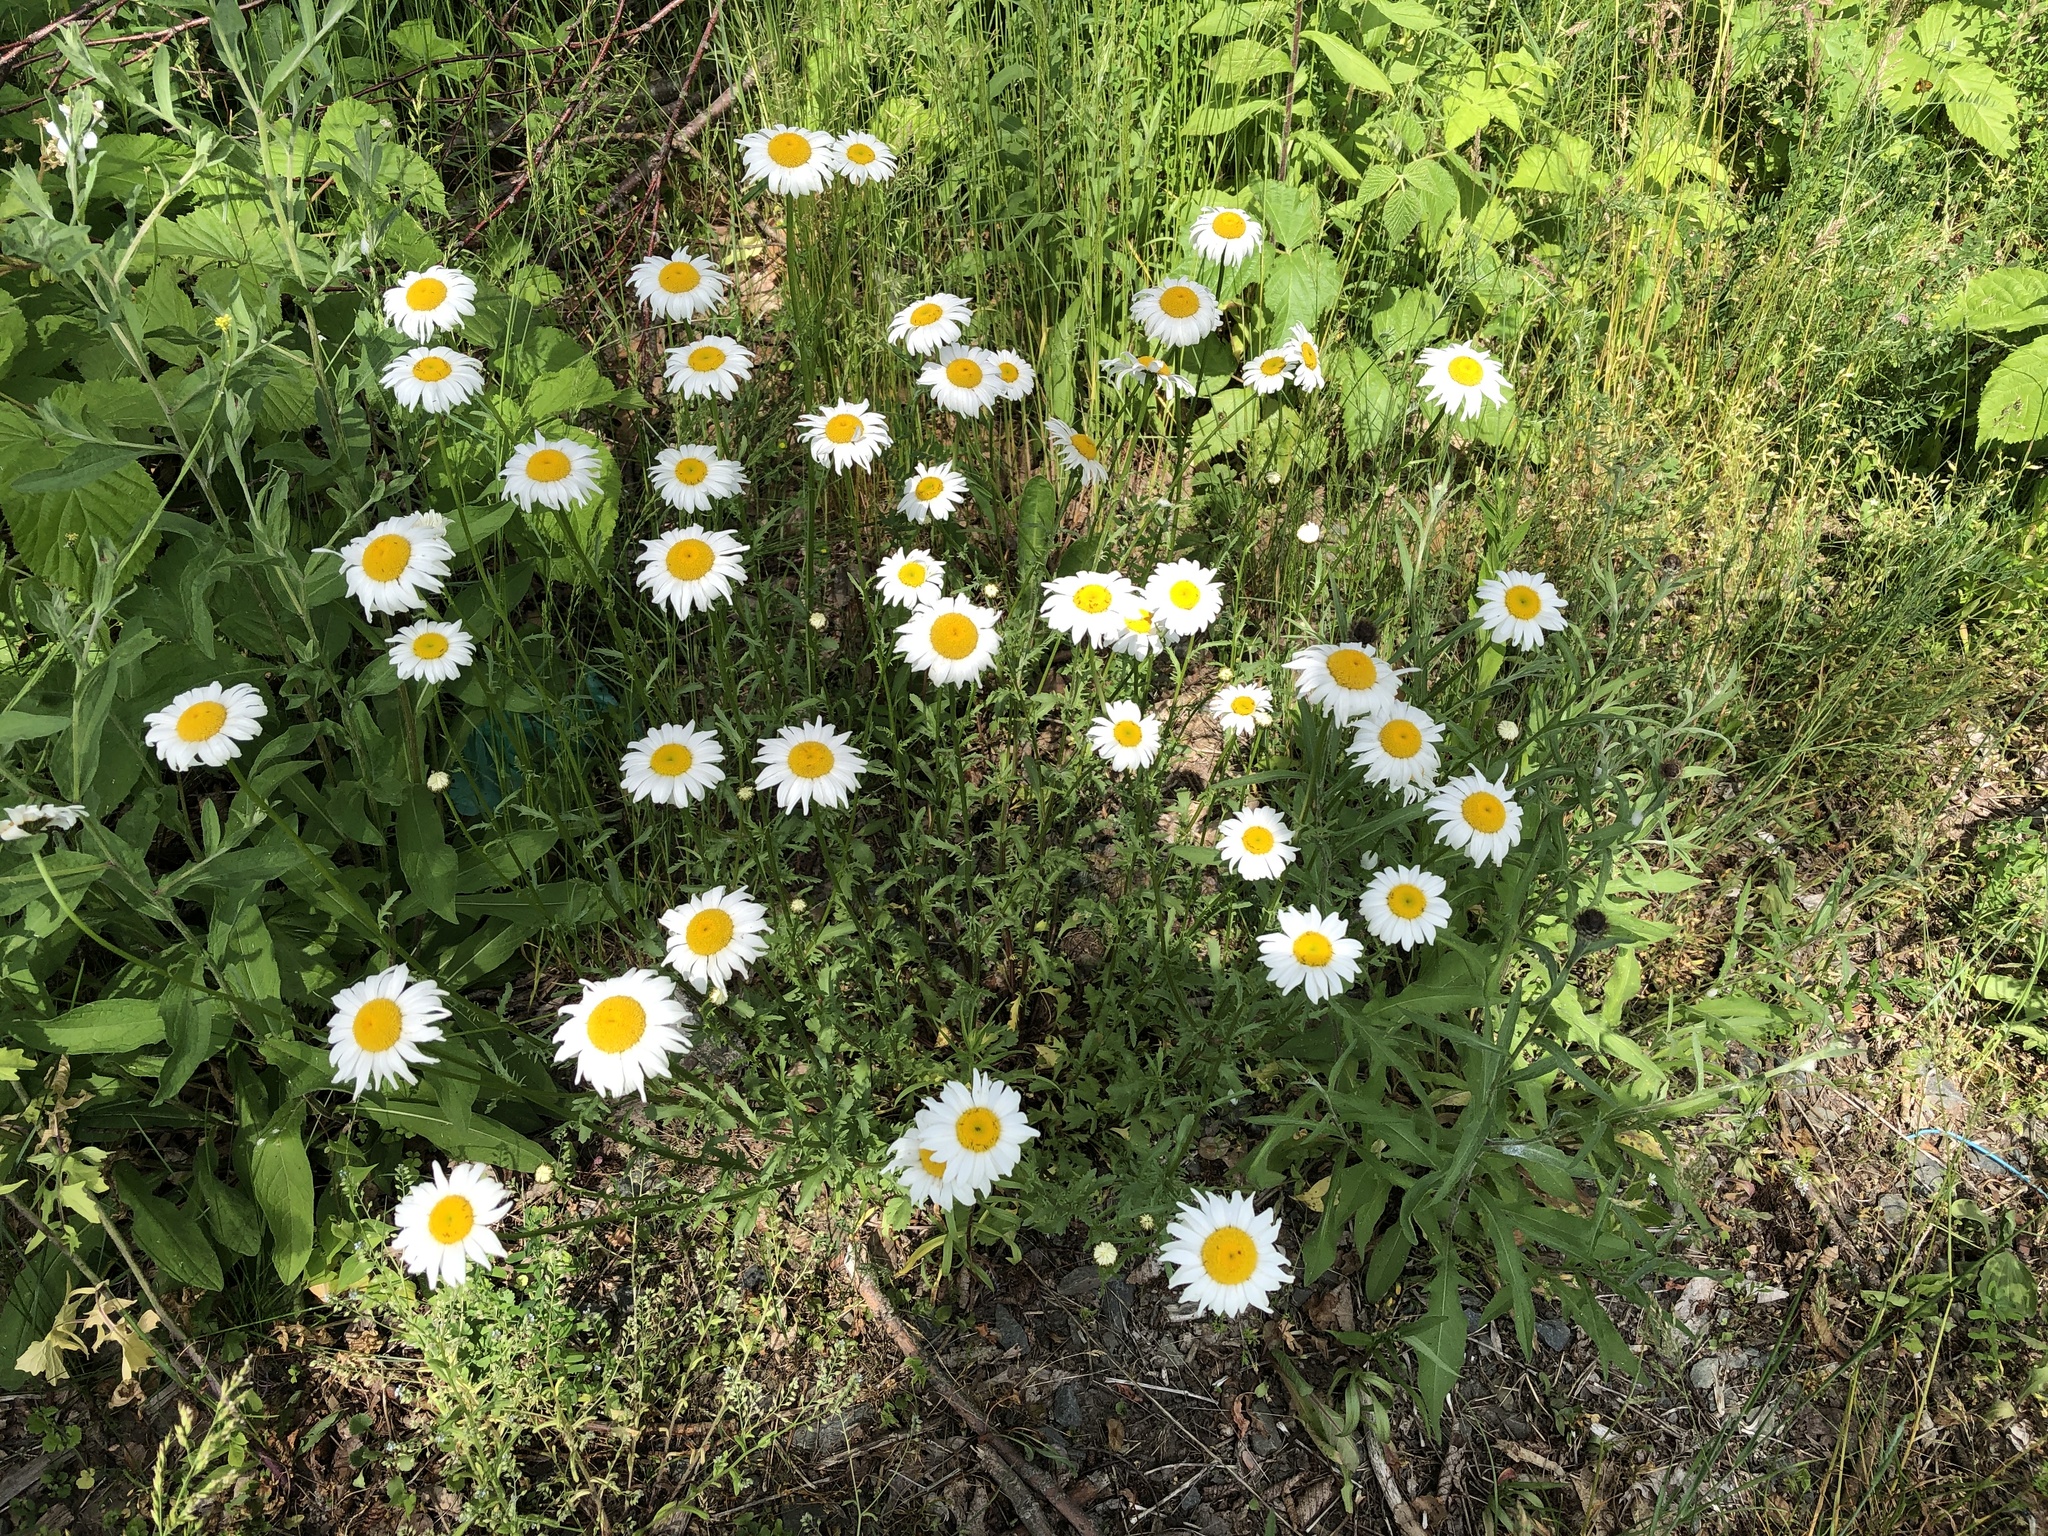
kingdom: Plantae
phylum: Tracheophyta
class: Magnoliopsida
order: Asterales
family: Asteraceae
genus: Leucanthemum
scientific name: Leucanthemum vulgare
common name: Oxeye daisy
